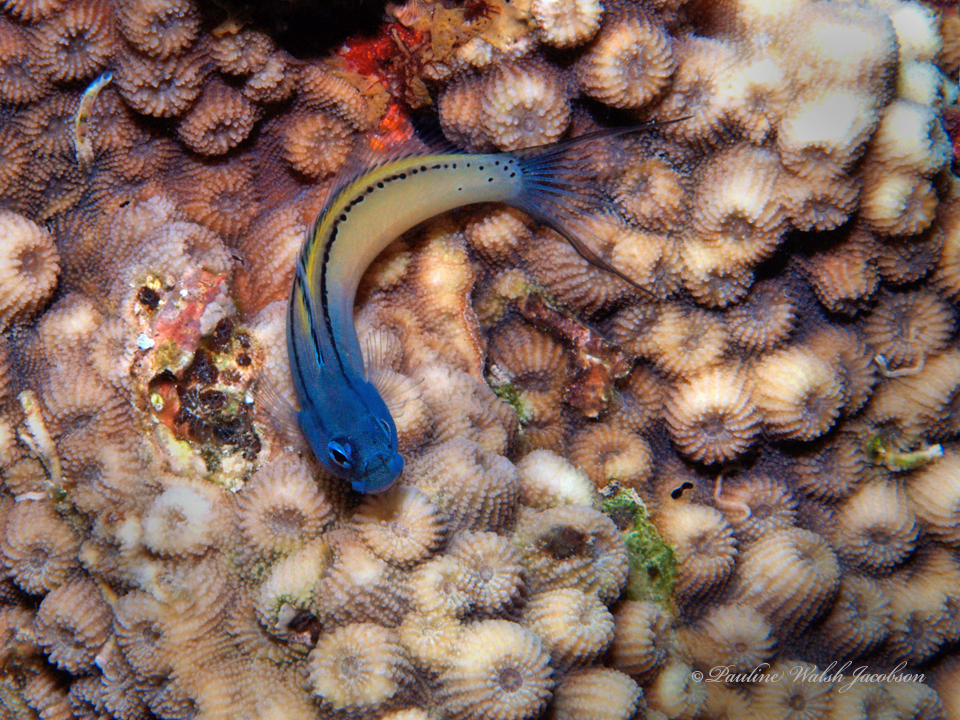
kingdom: Animalia
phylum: Chordata
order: Perciformes
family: Blenniidae
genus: Ecsenius
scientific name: Ecsenius gravieri
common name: Red sea mimic blenny
